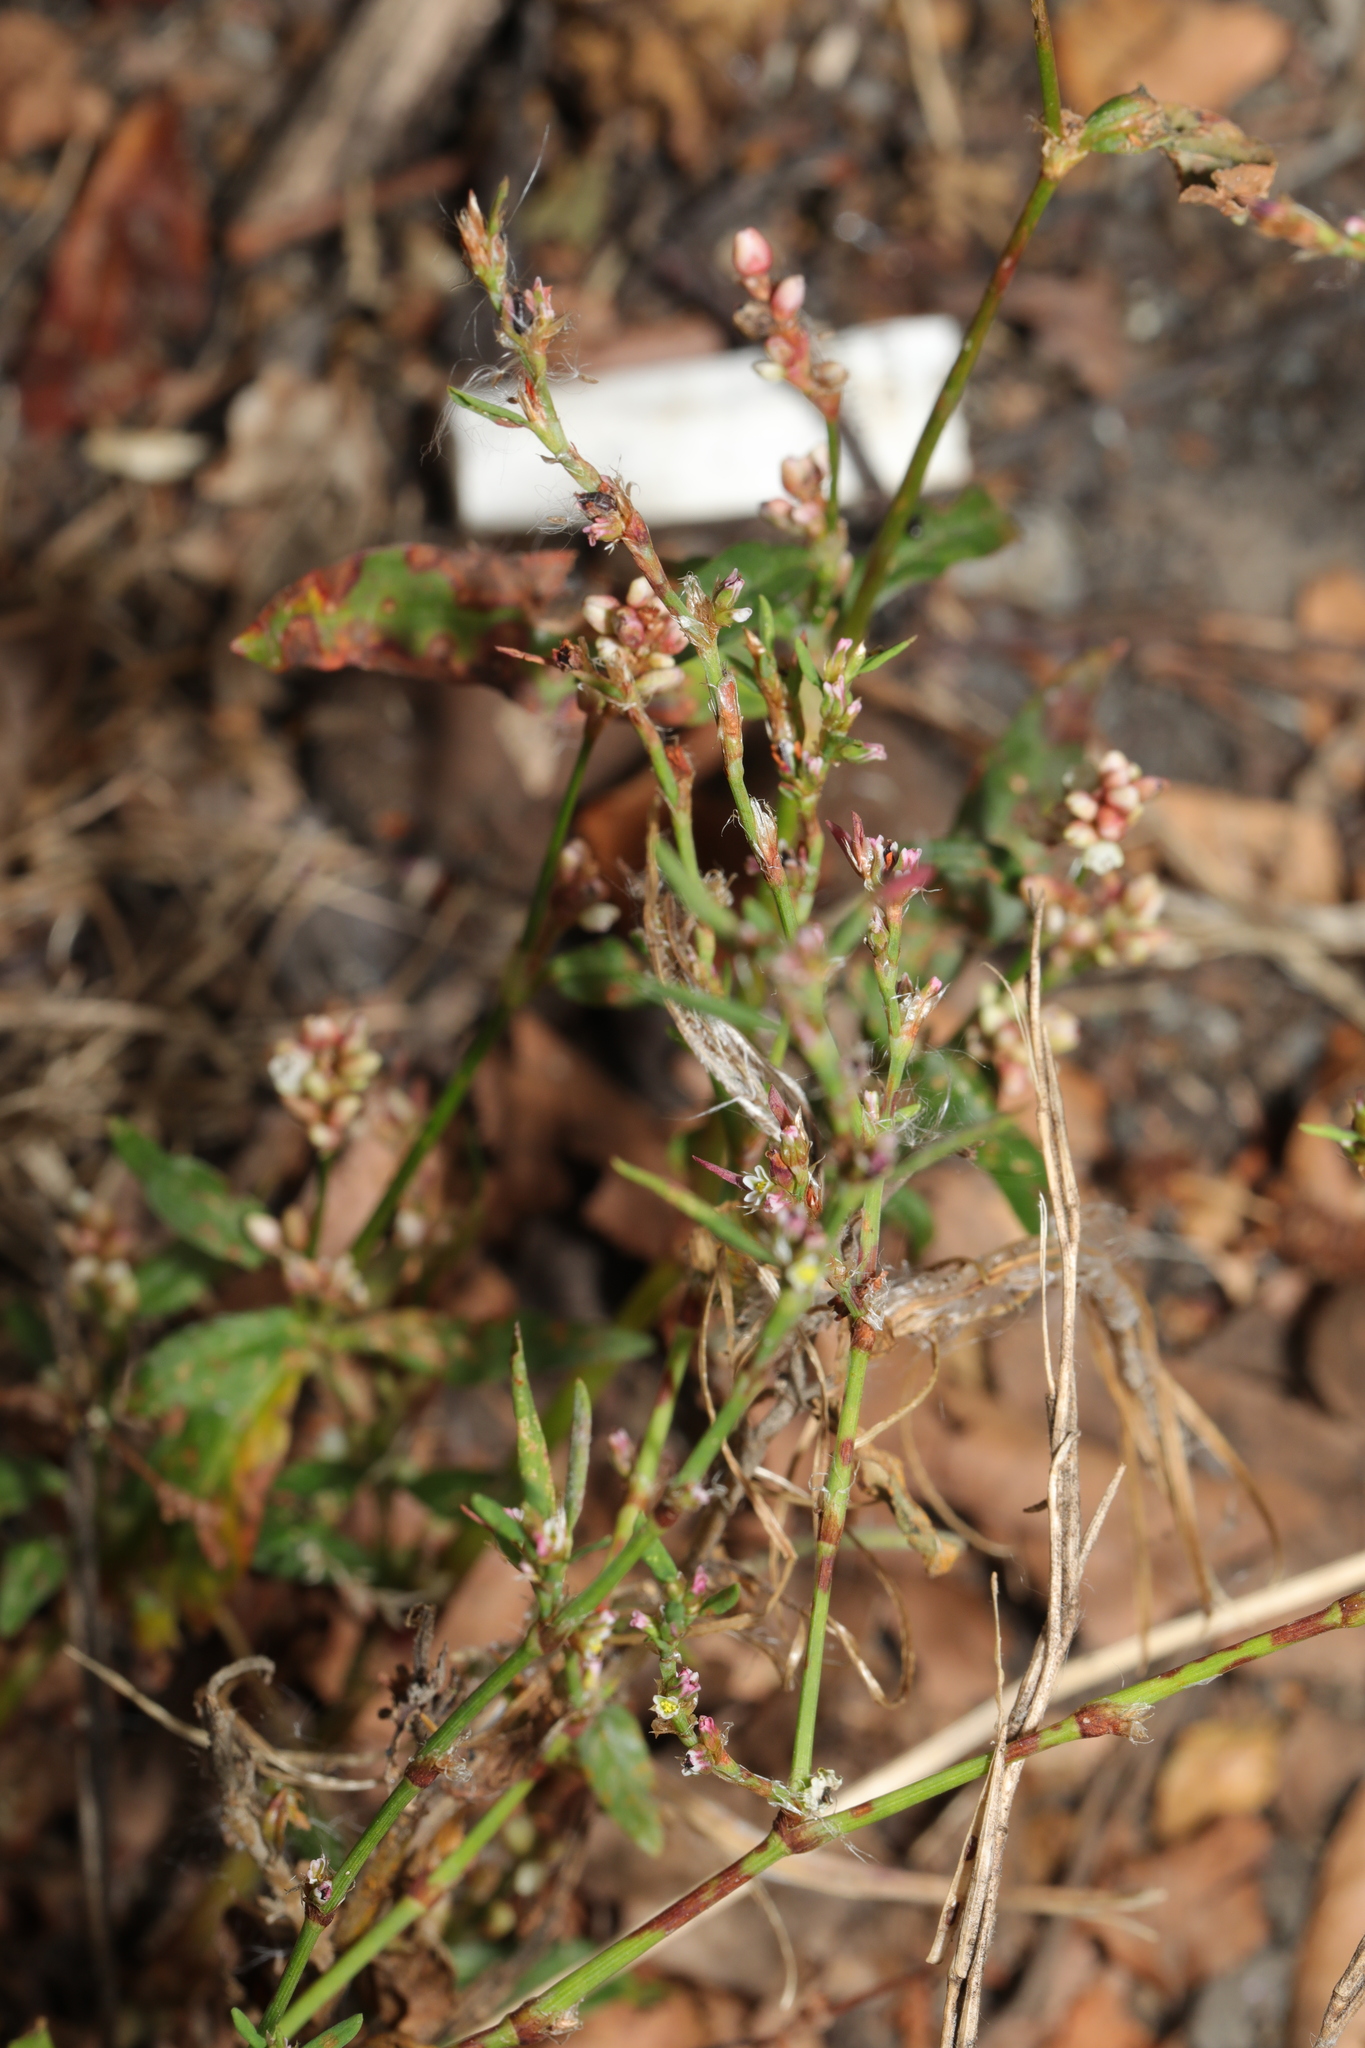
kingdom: Plantae
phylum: Tracheophyta
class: Magnoliopsida
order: Caryophyllales
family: Polygonaceae
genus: Persicaria
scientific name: Persicaria maculosa
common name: Redshank
